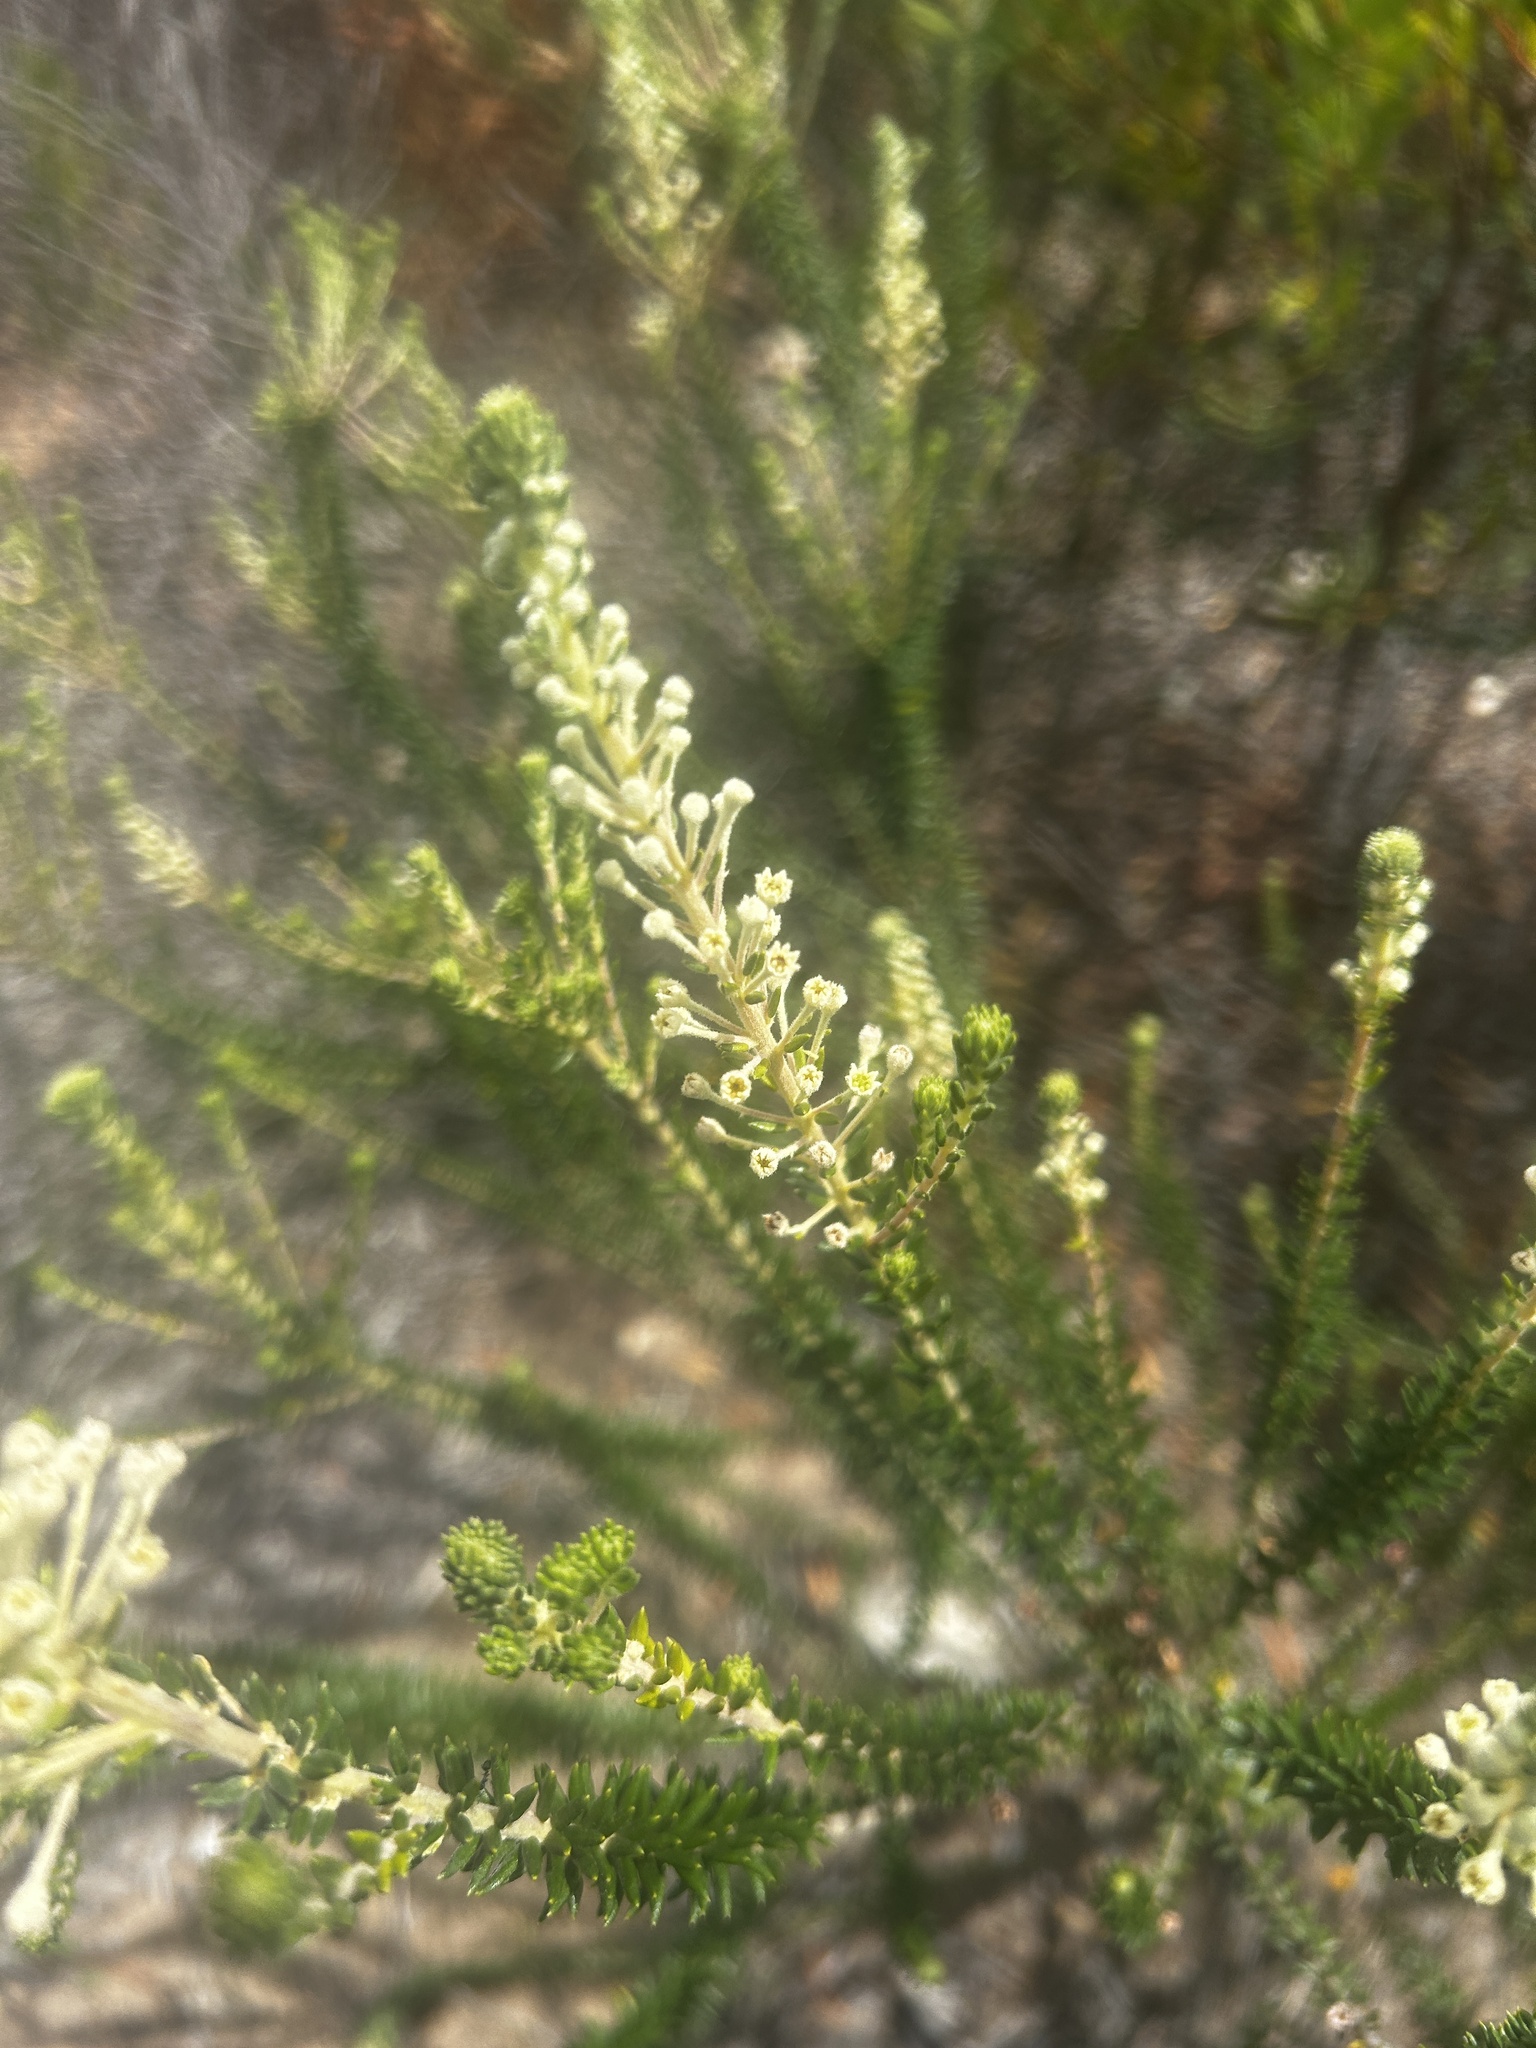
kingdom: Plantae
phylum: Tracheophyta
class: Magnoliopsida
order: Rosales
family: Rhamnaceae
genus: Phylica
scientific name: Phylica axillaris
